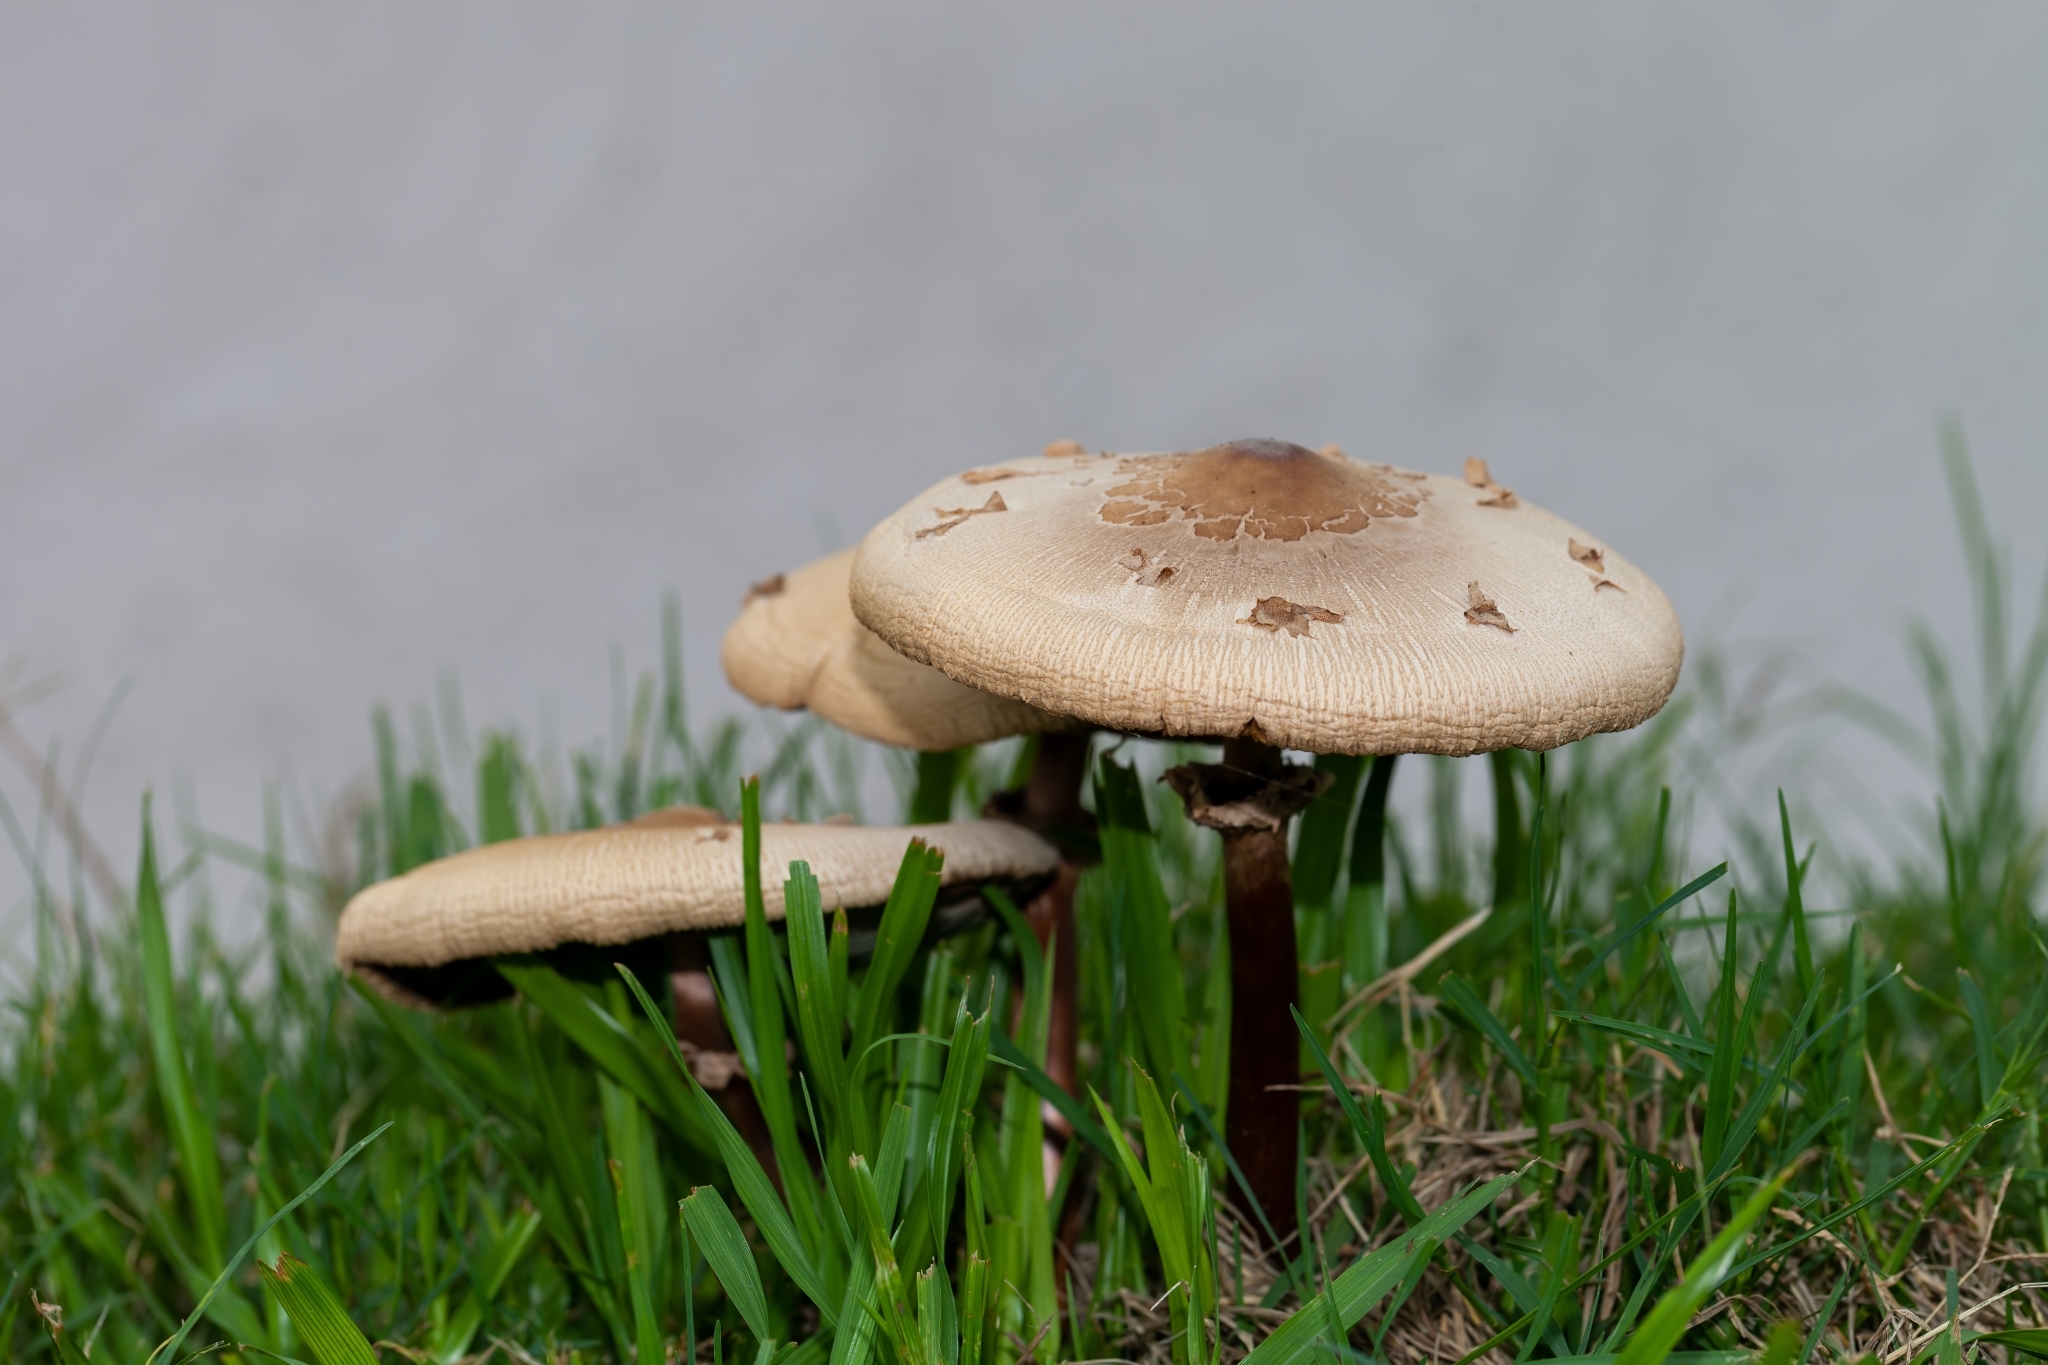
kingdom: Fungi
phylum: Basidiomycota
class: Agaricomycetes
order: Agaricales
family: Agaricaceae
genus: Chlorophyllum
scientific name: Chlorophyllum molybdites
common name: False parasol
